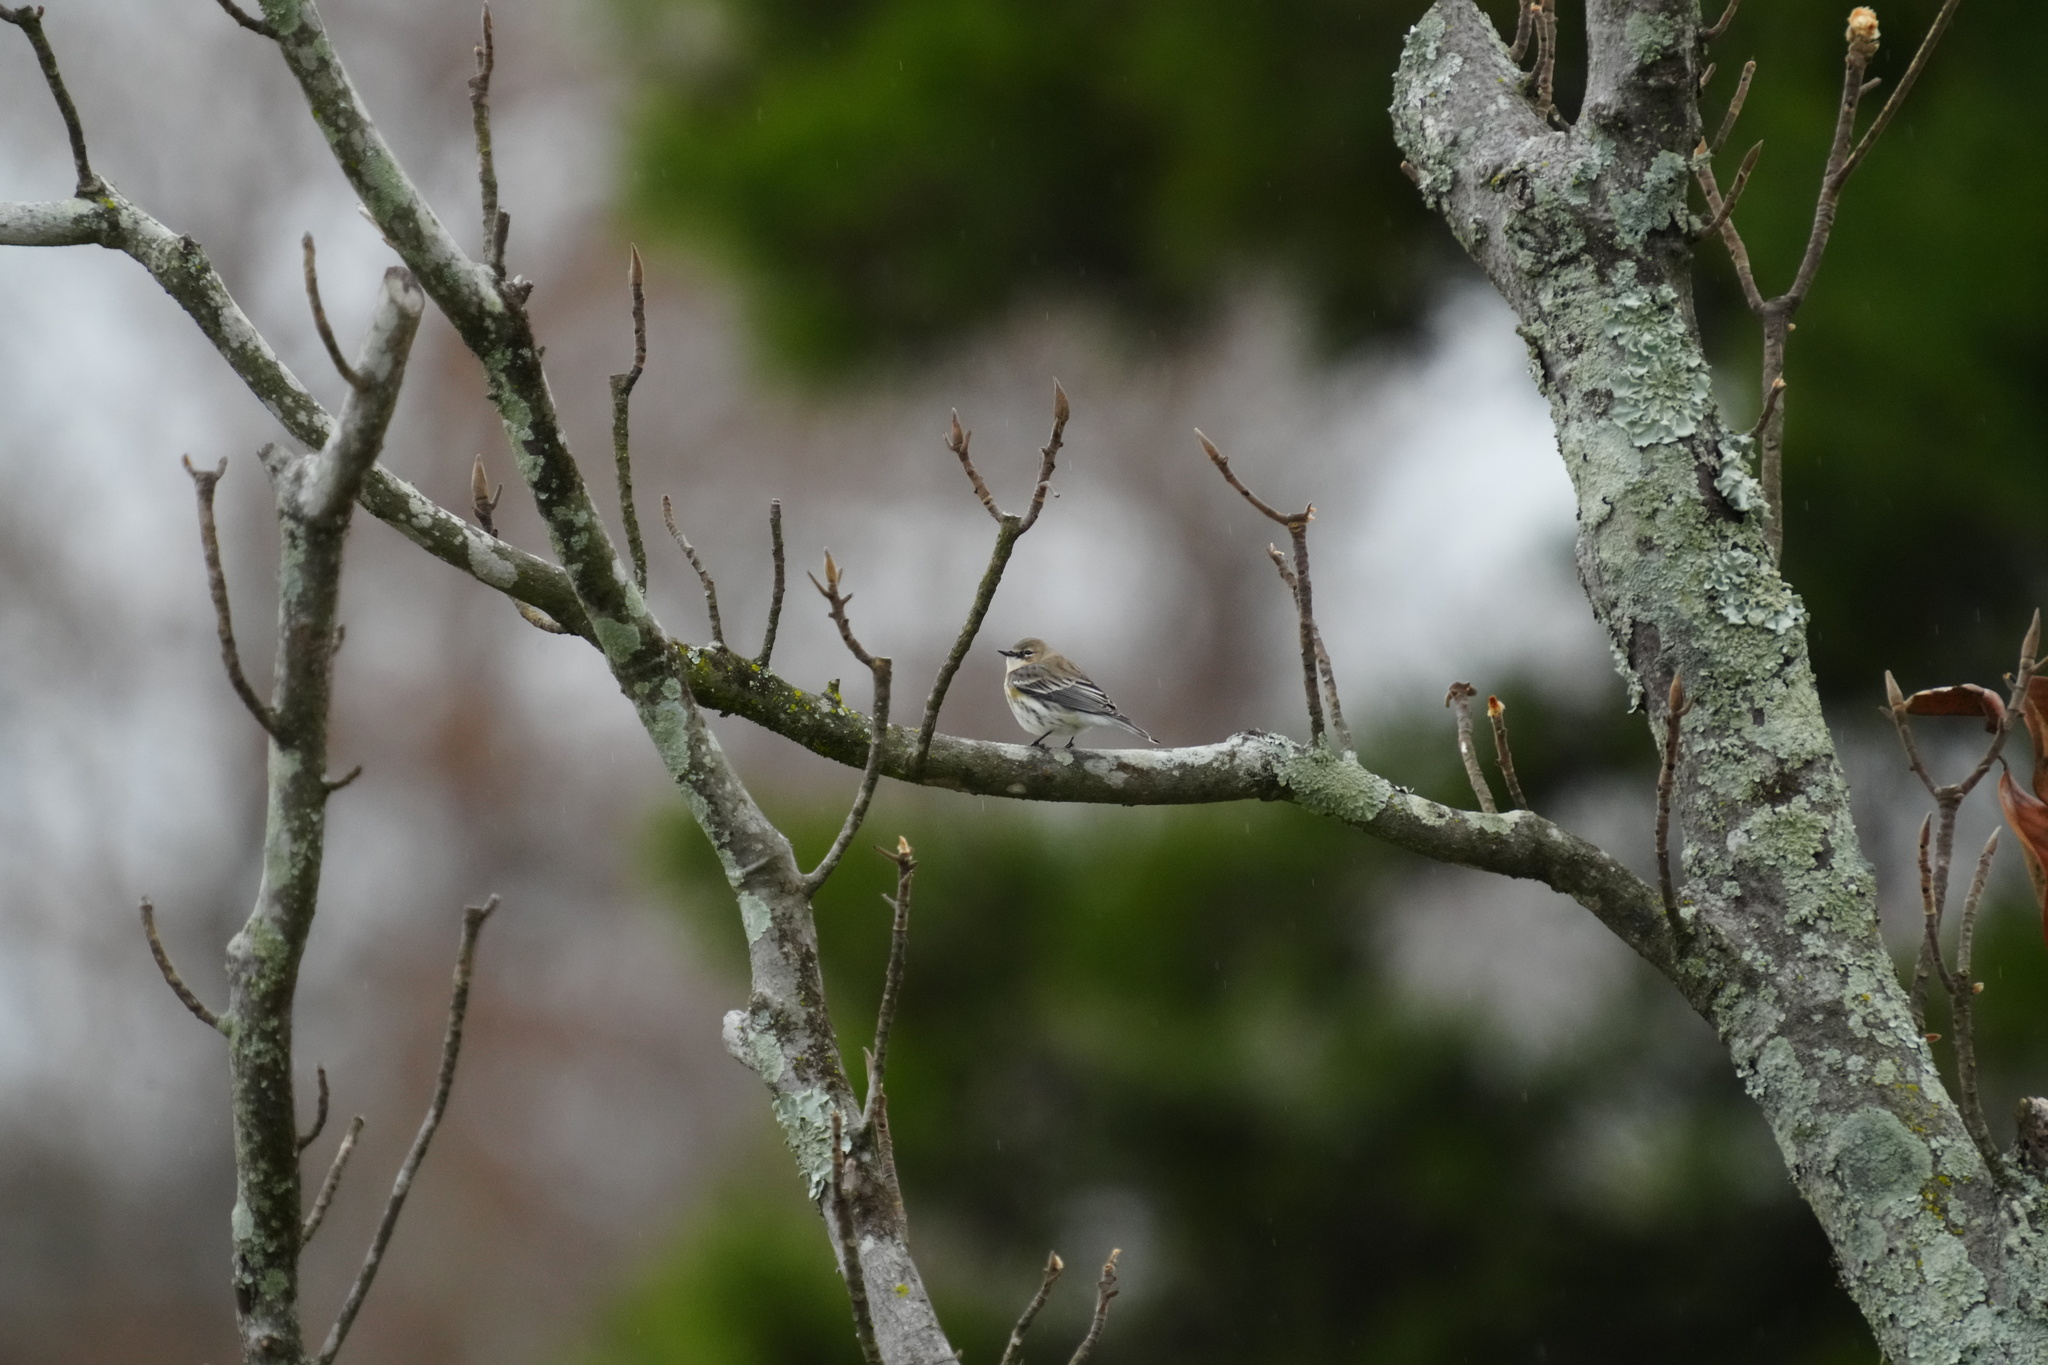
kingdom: Animalia
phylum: Chordata
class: Aves
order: Passeriformes
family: Parulidae
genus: Setophaga
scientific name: Setophaga coronata
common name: Myrtle warbler
